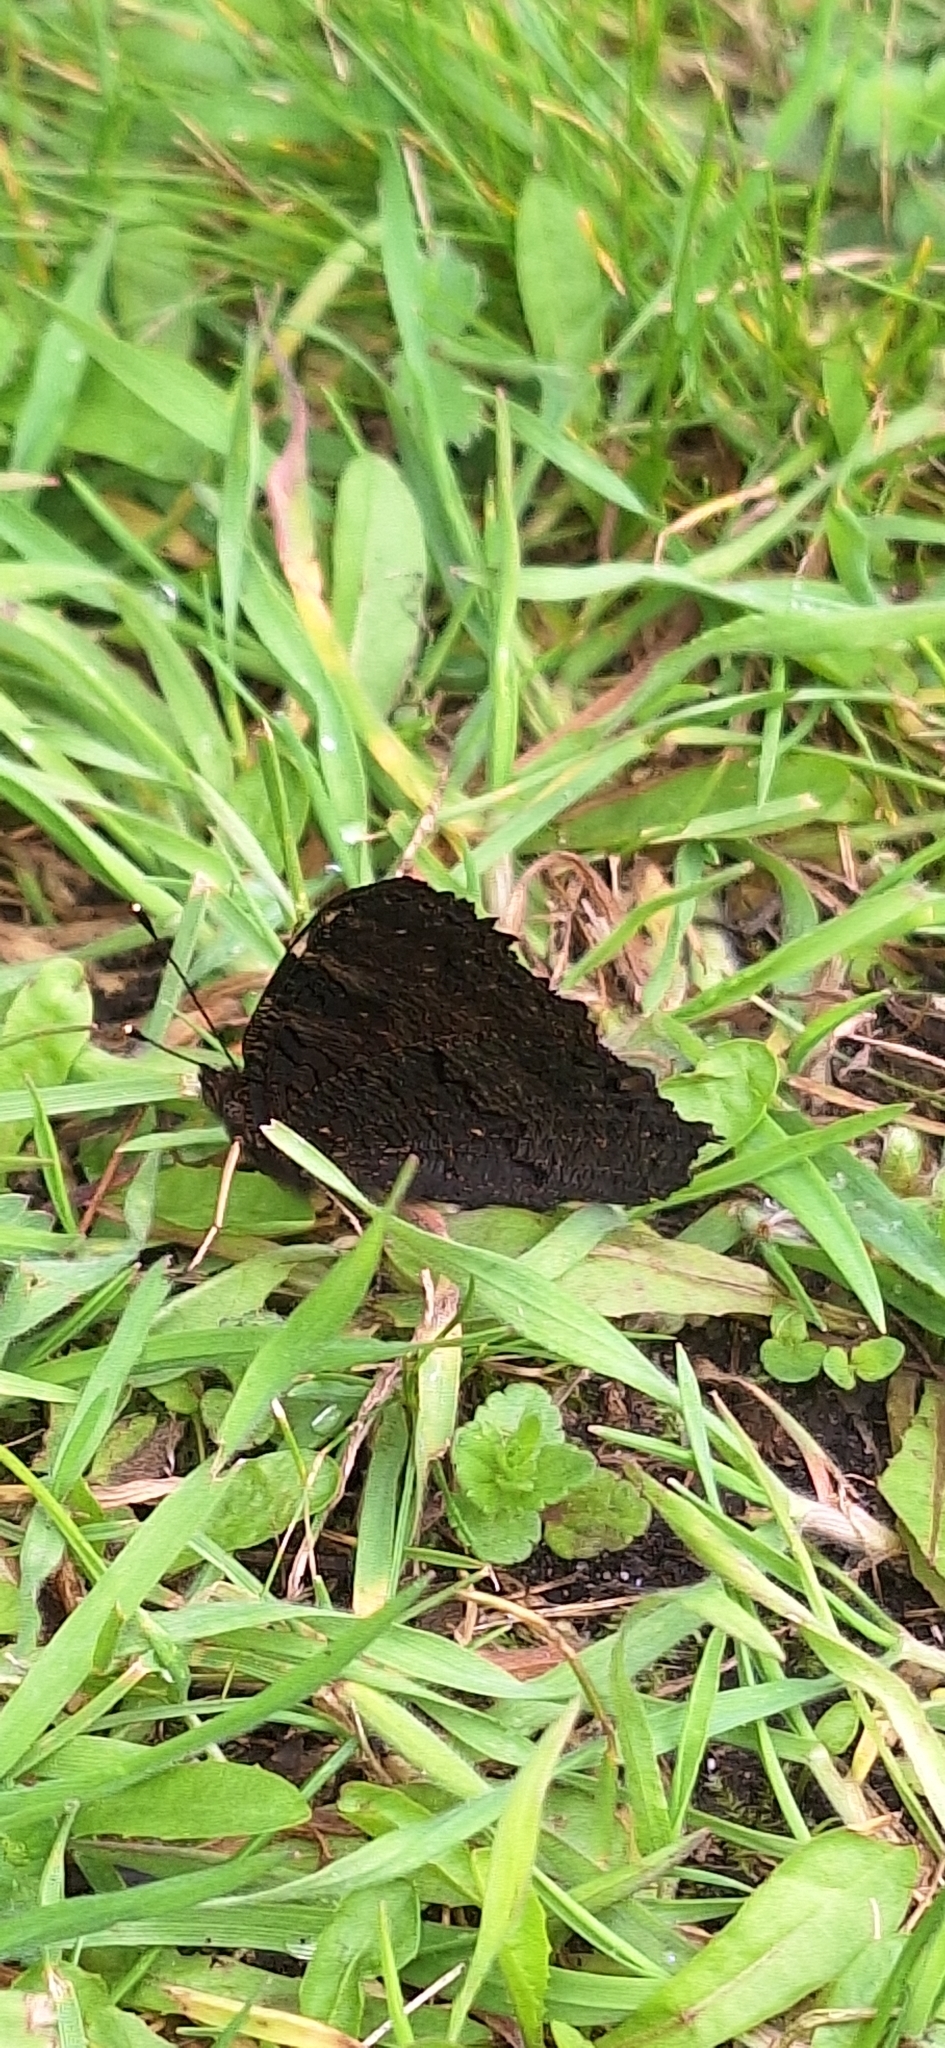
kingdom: Animalia
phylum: Arthropoda
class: Insecta
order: Lepidoptera
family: Nymphalidae
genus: Aglais
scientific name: Aglais io
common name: Peacock
